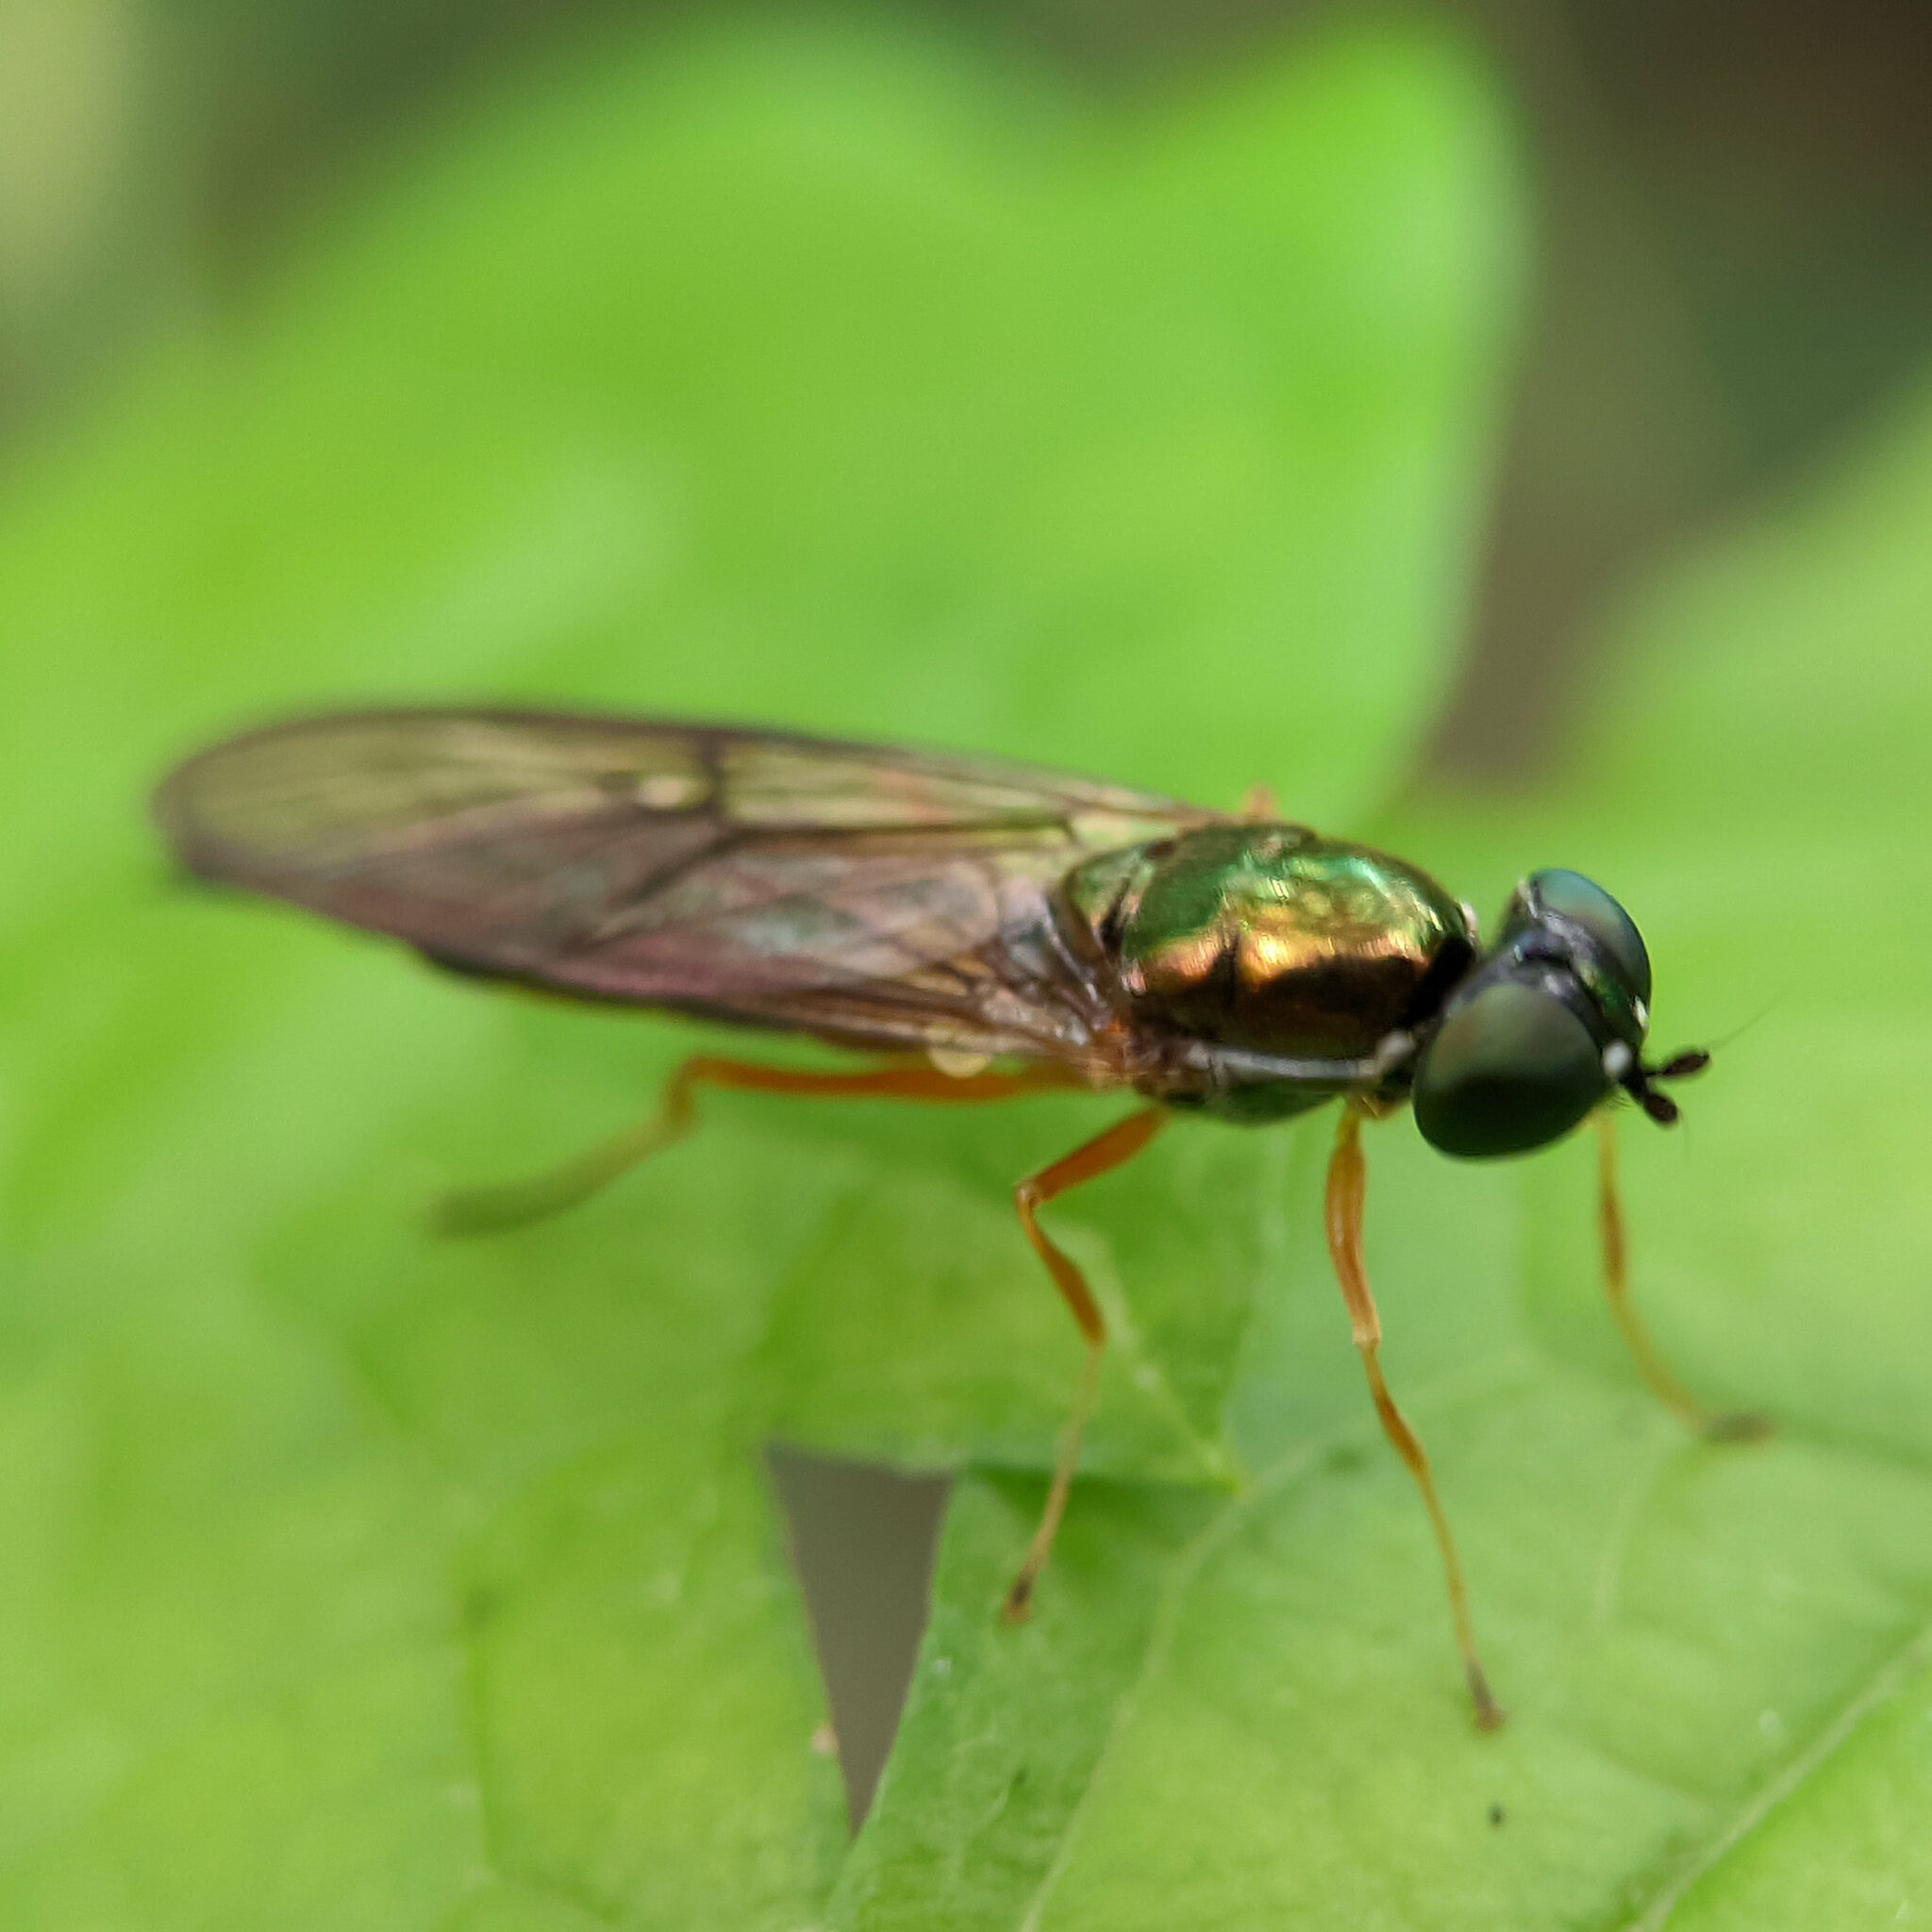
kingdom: Animalia
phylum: Arthropoda
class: Insecta
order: Diptera
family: Stratiomyidae
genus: Sargus
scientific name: Sargus bipunctatus
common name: Twin-spot centurion
